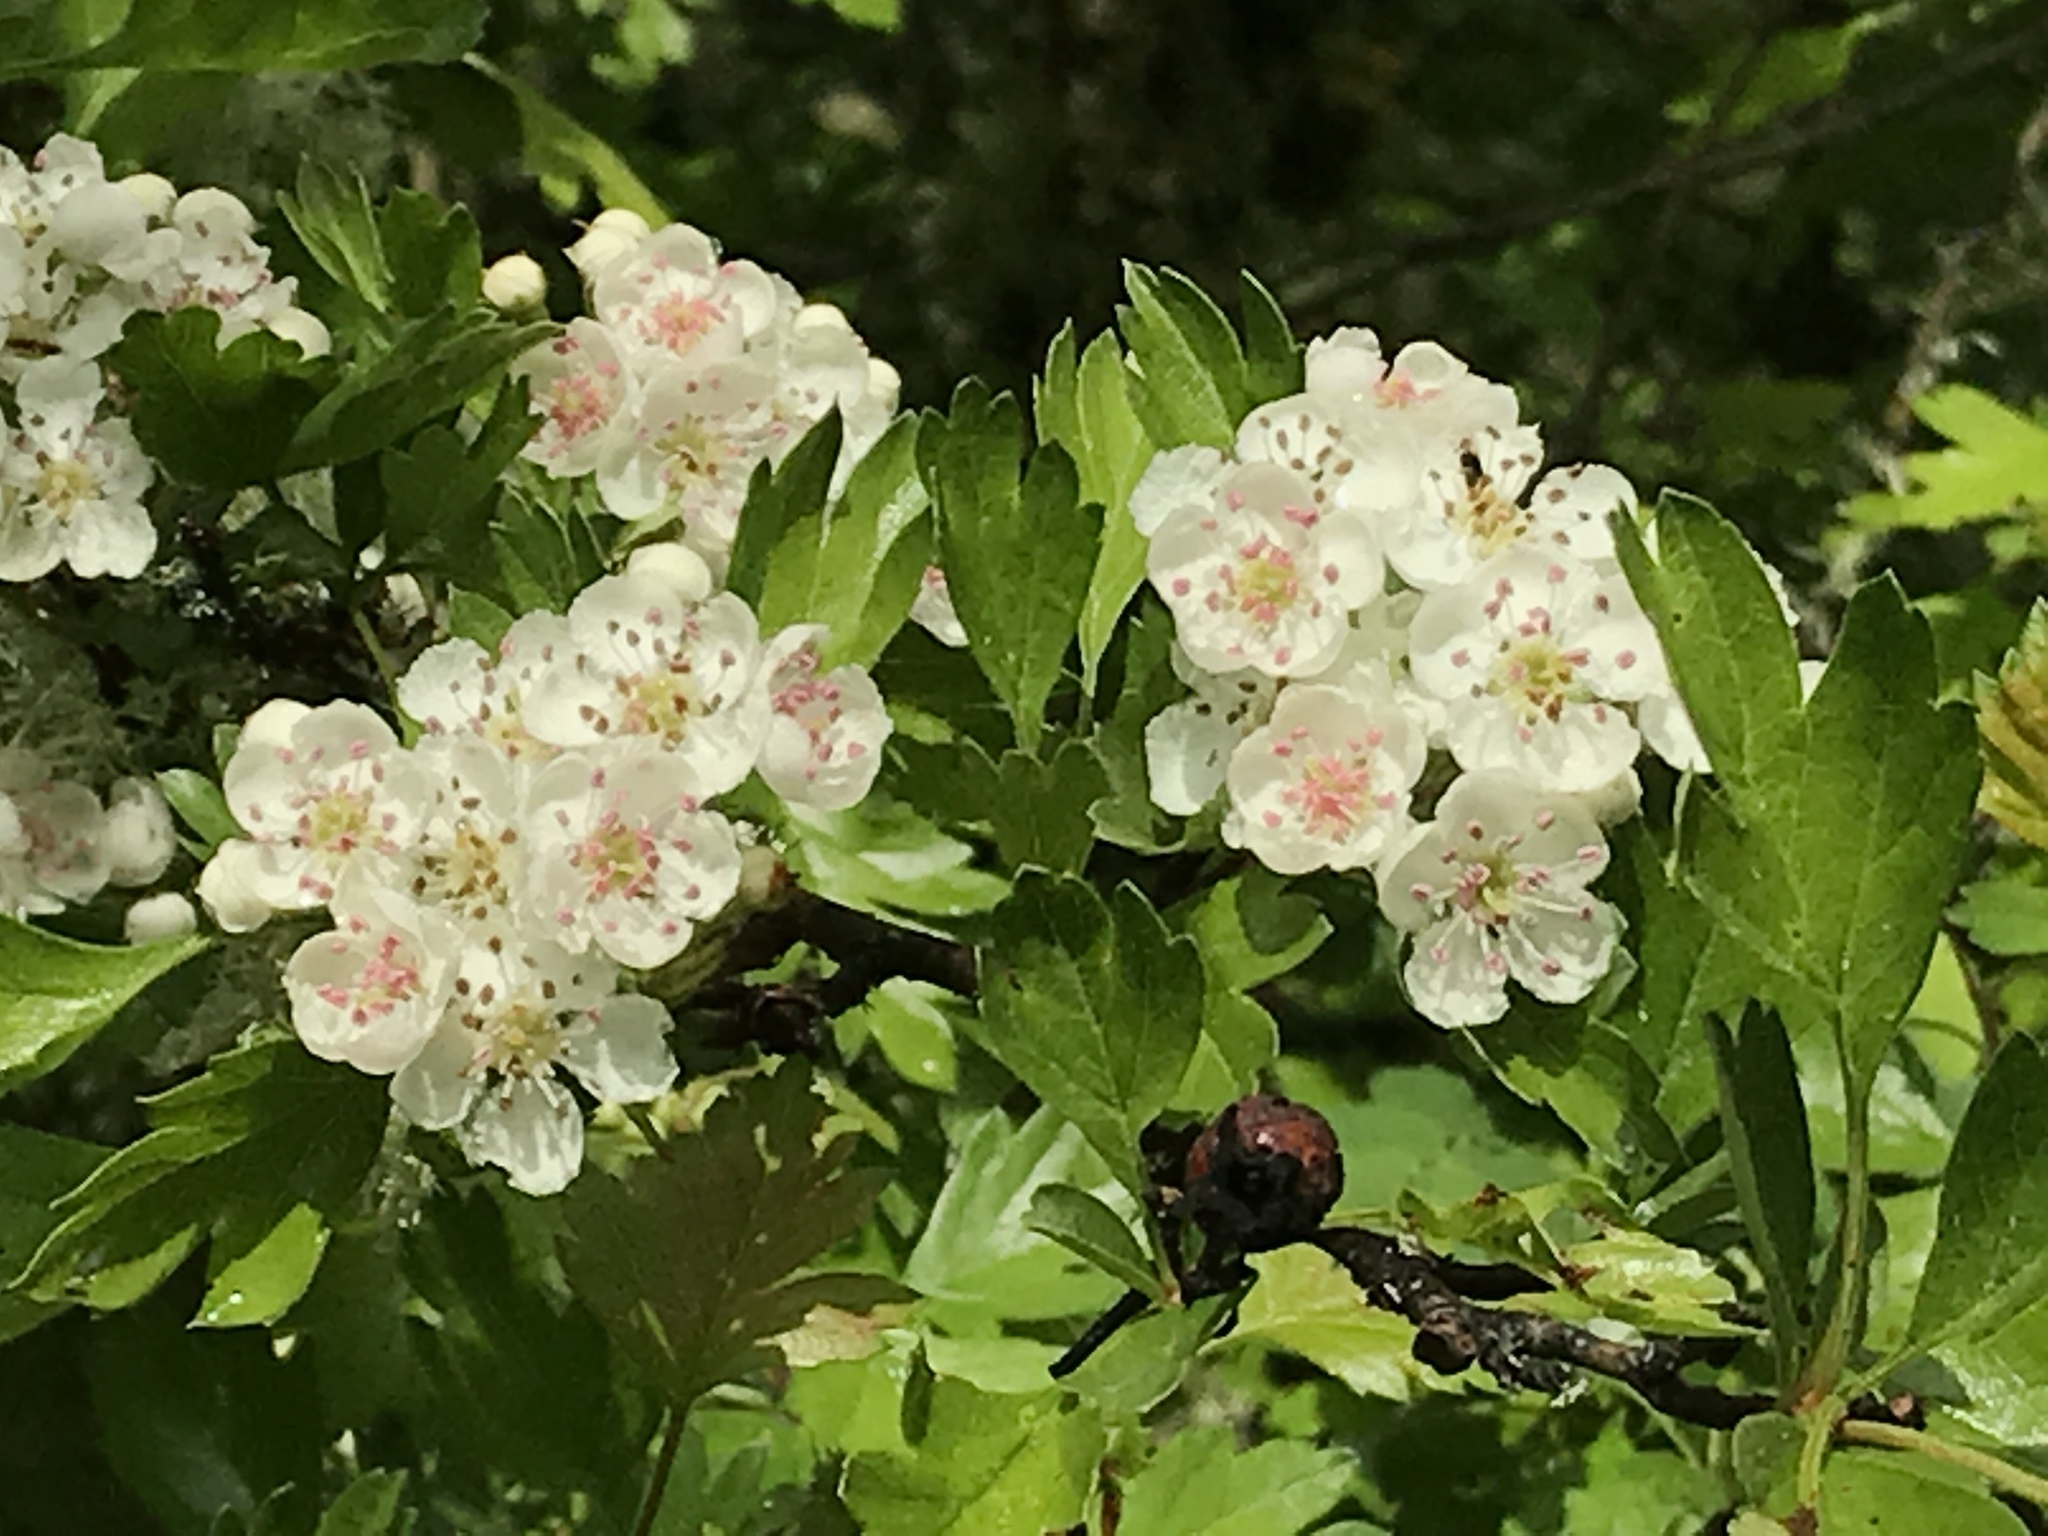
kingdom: Plantae
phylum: Tracheophyta
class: Magnoliopsida
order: Rosales
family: Rosaceae
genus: Crataegus
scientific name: Crataegus monogyna
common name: Hawthorn
